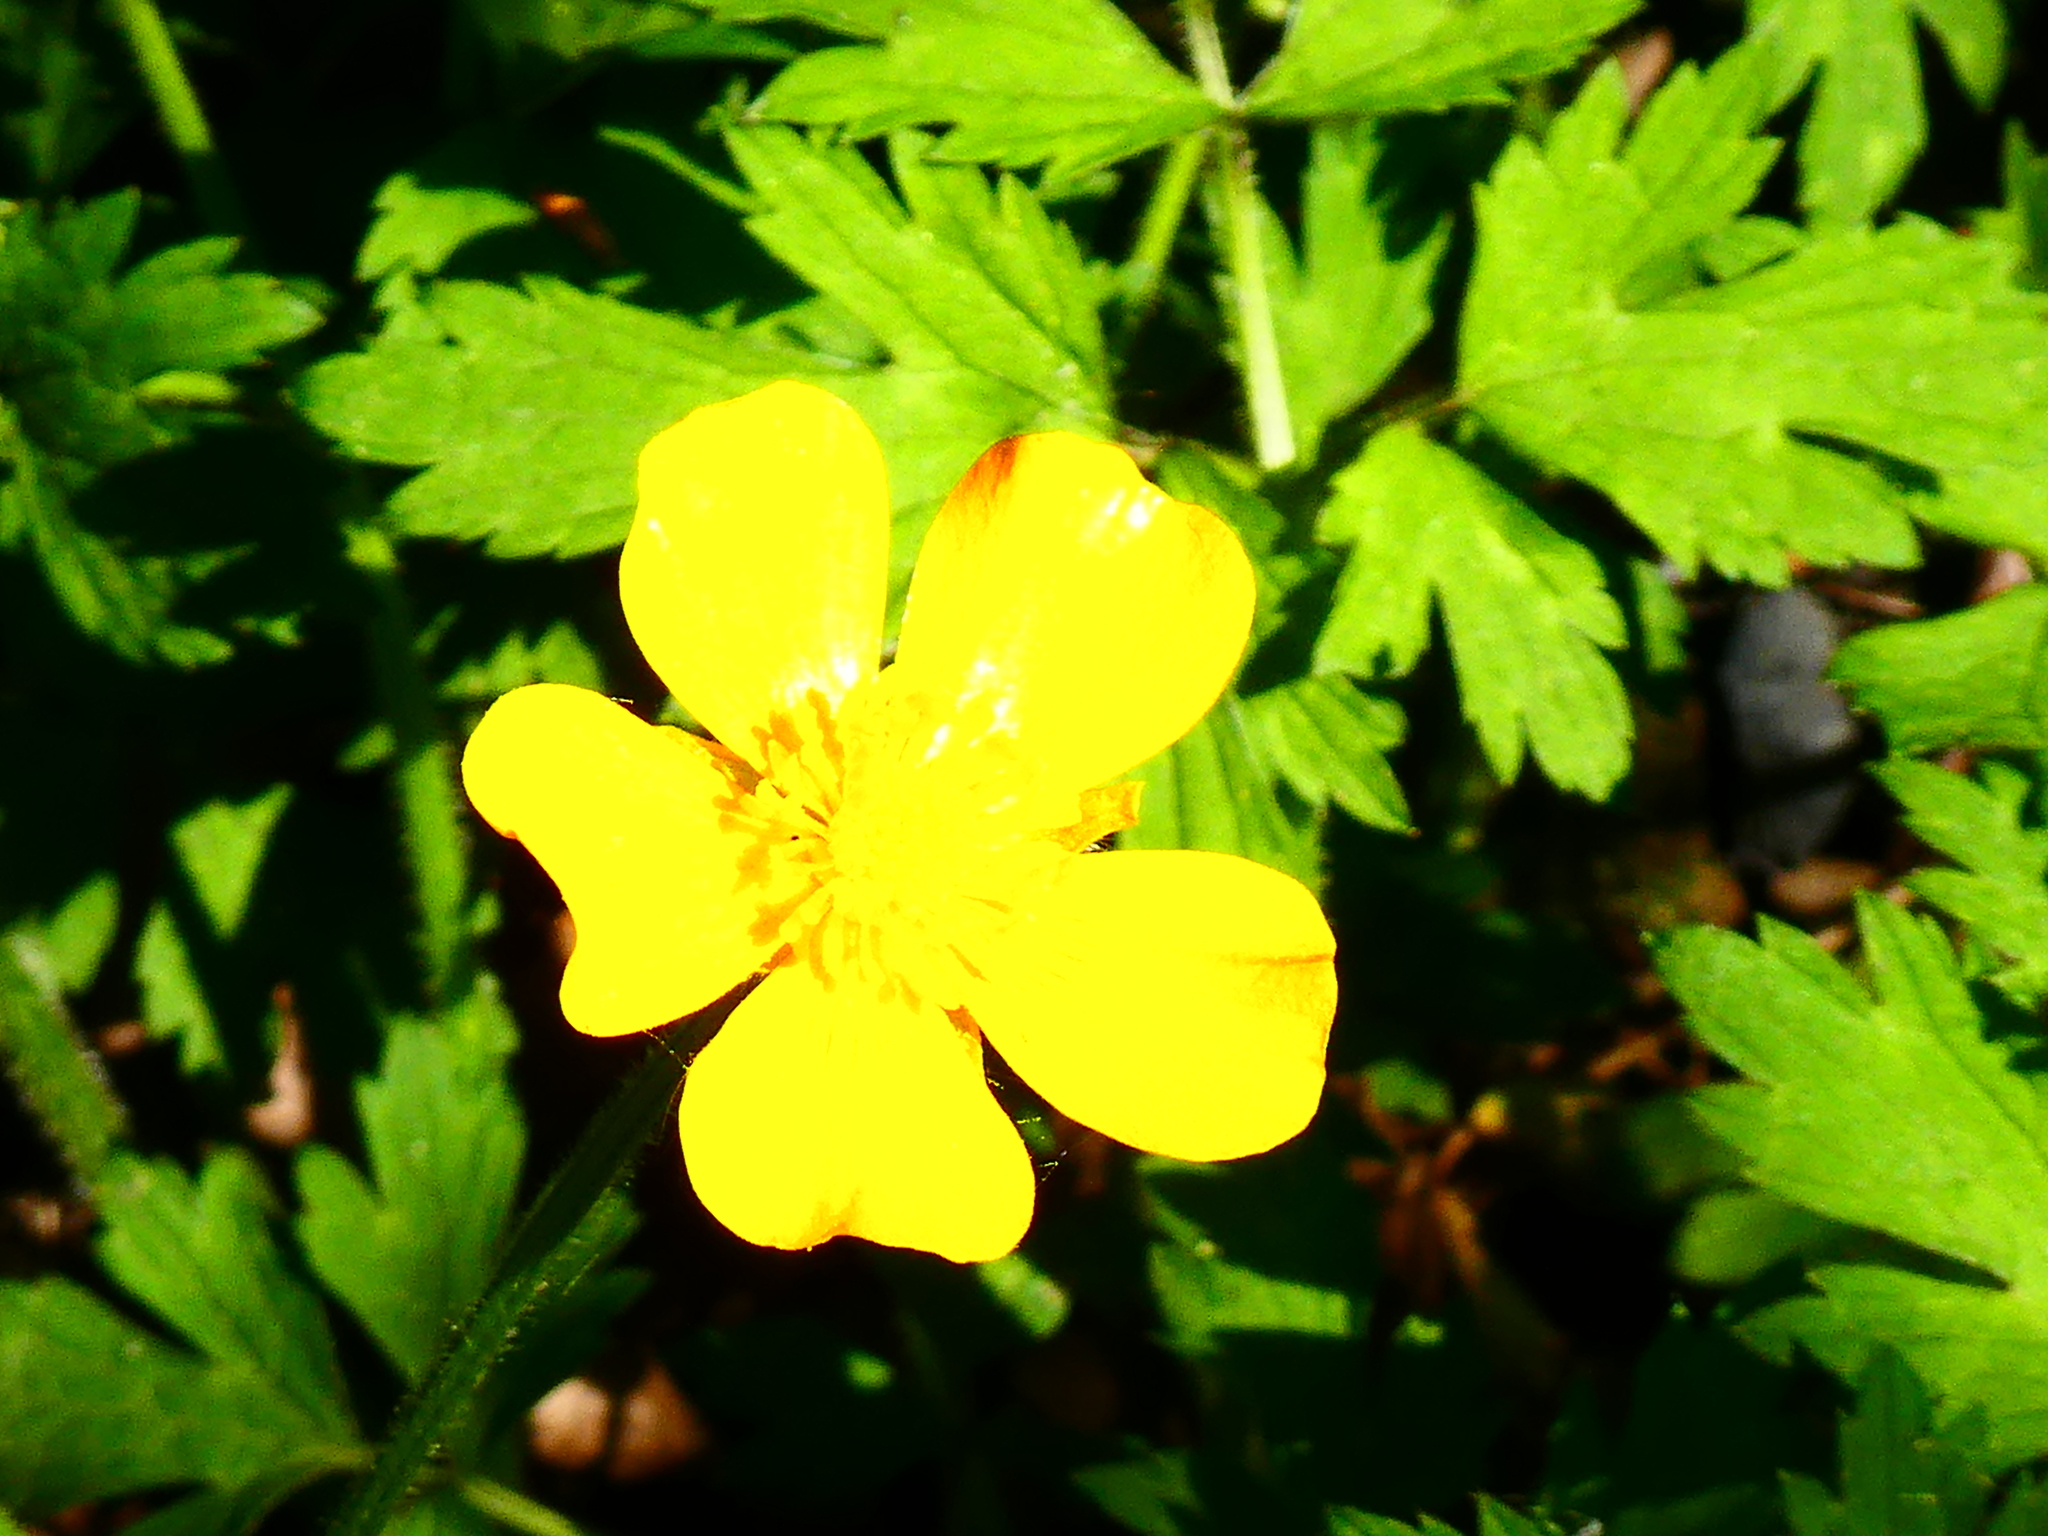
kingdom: Plantae
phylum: Tracheophyta
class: Magnoliopsida
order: Ranunculales
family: Ranunculaceae
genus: Ranunculus
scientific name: Ranunculus repens
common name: Creeping buttercup
